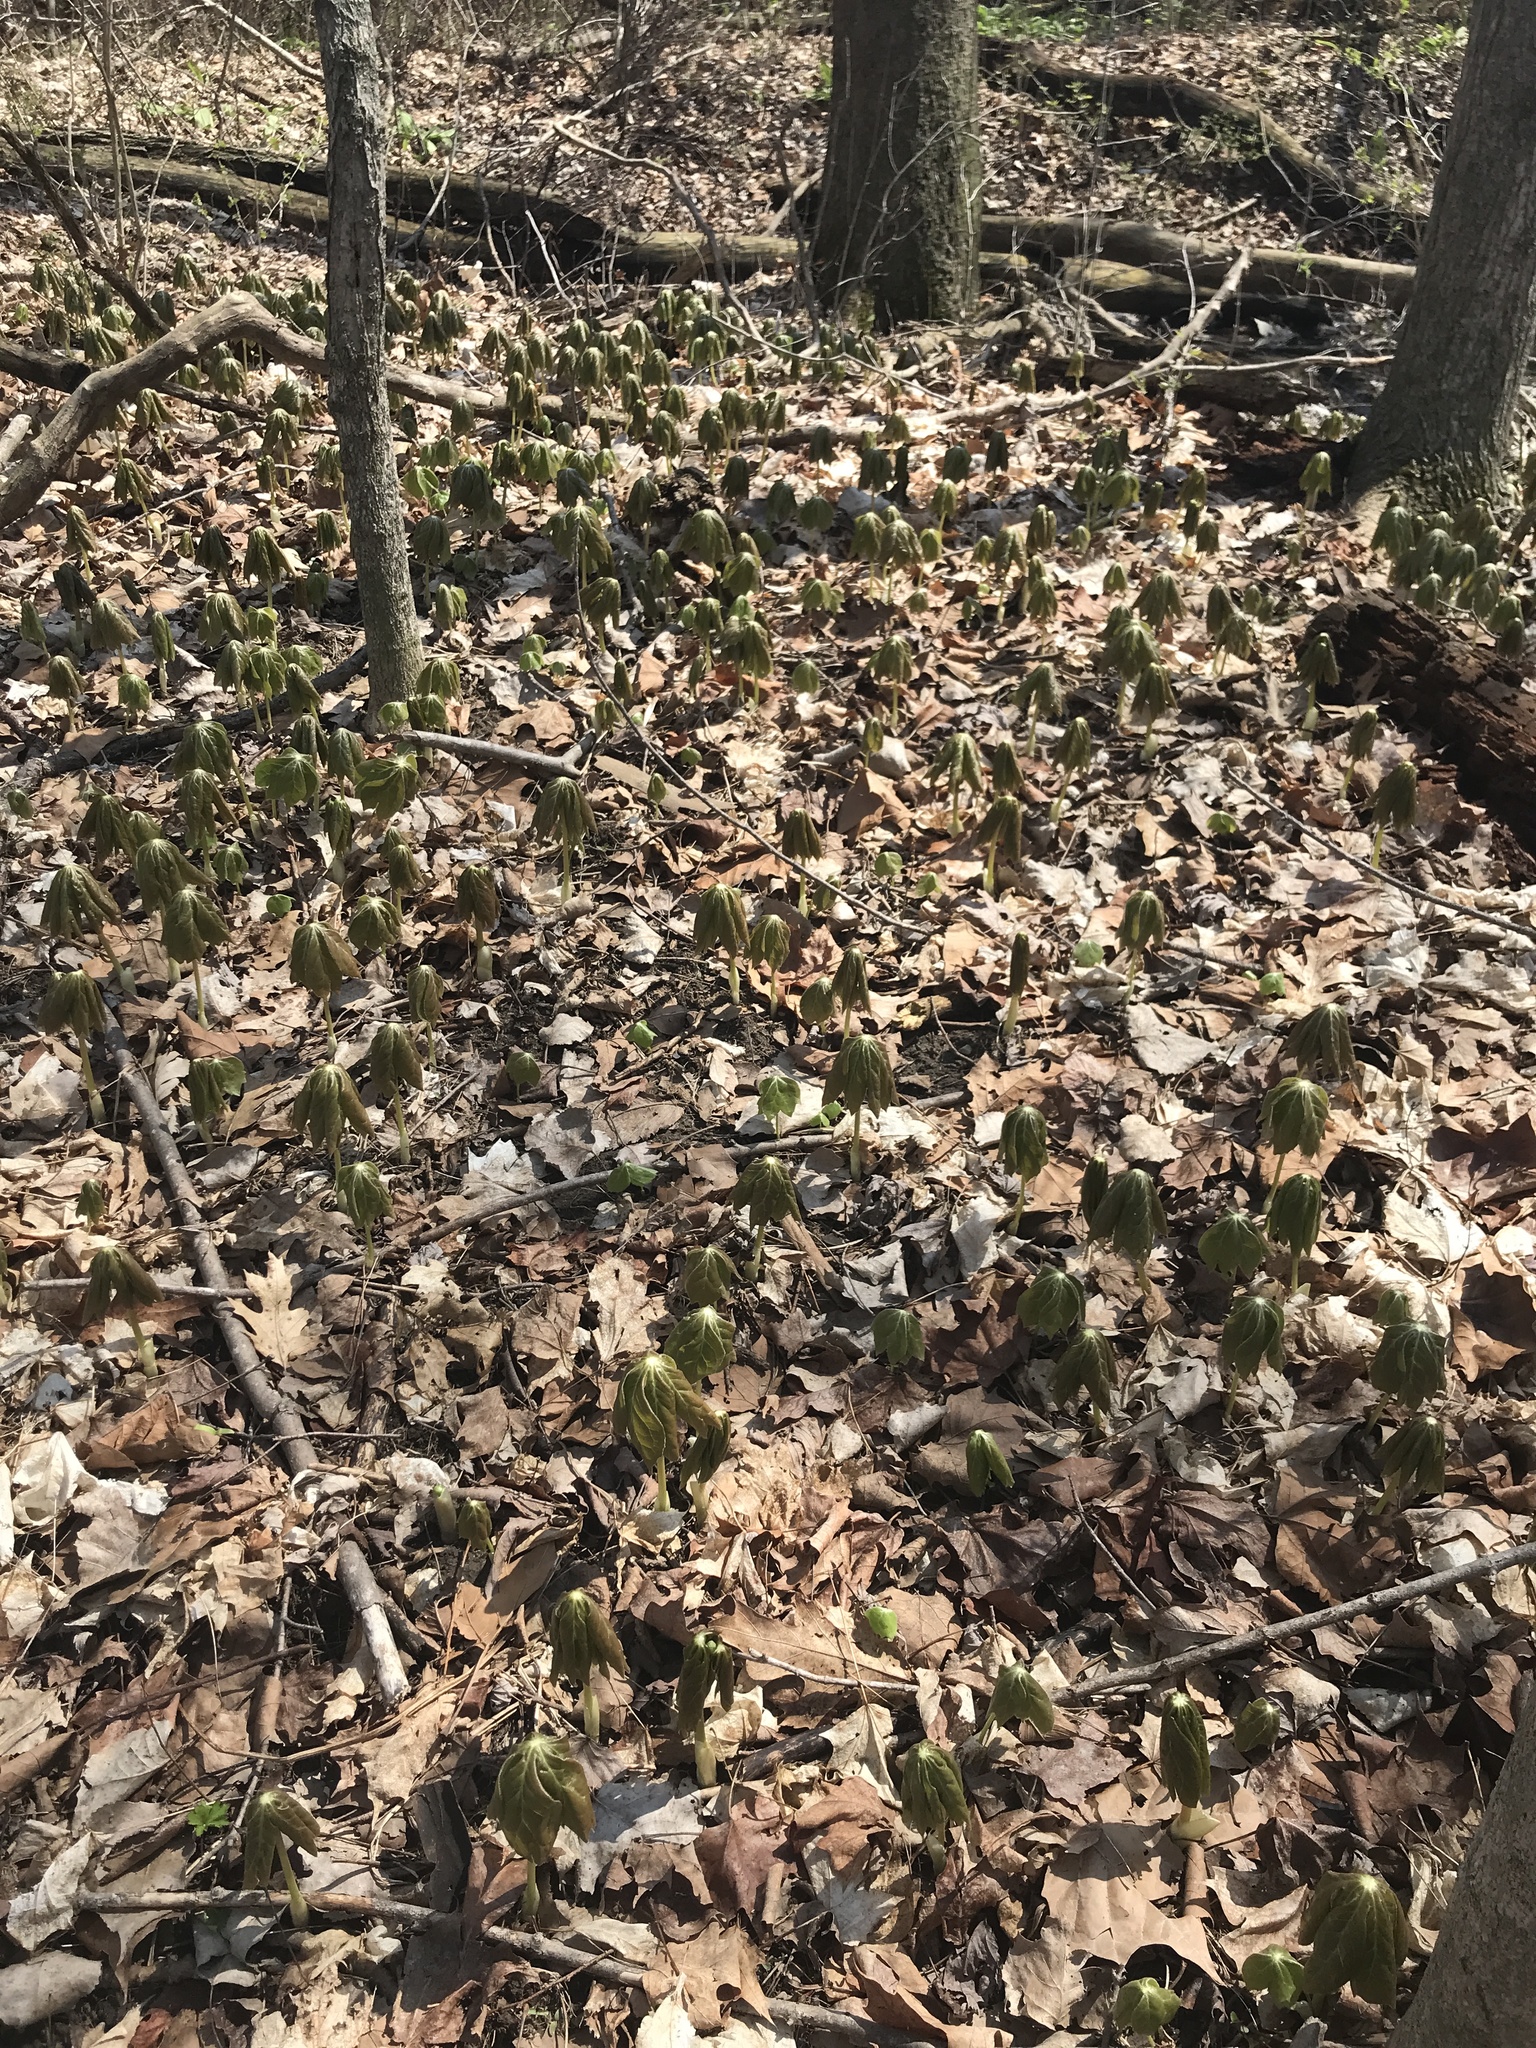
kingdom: Plantae
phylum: Tracheophyta
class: Magnoliopsida
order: Ranunculales
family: Berberidaceae
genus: Podophyllum
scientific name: Podophyllum peltatum
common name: Wild mandrake
